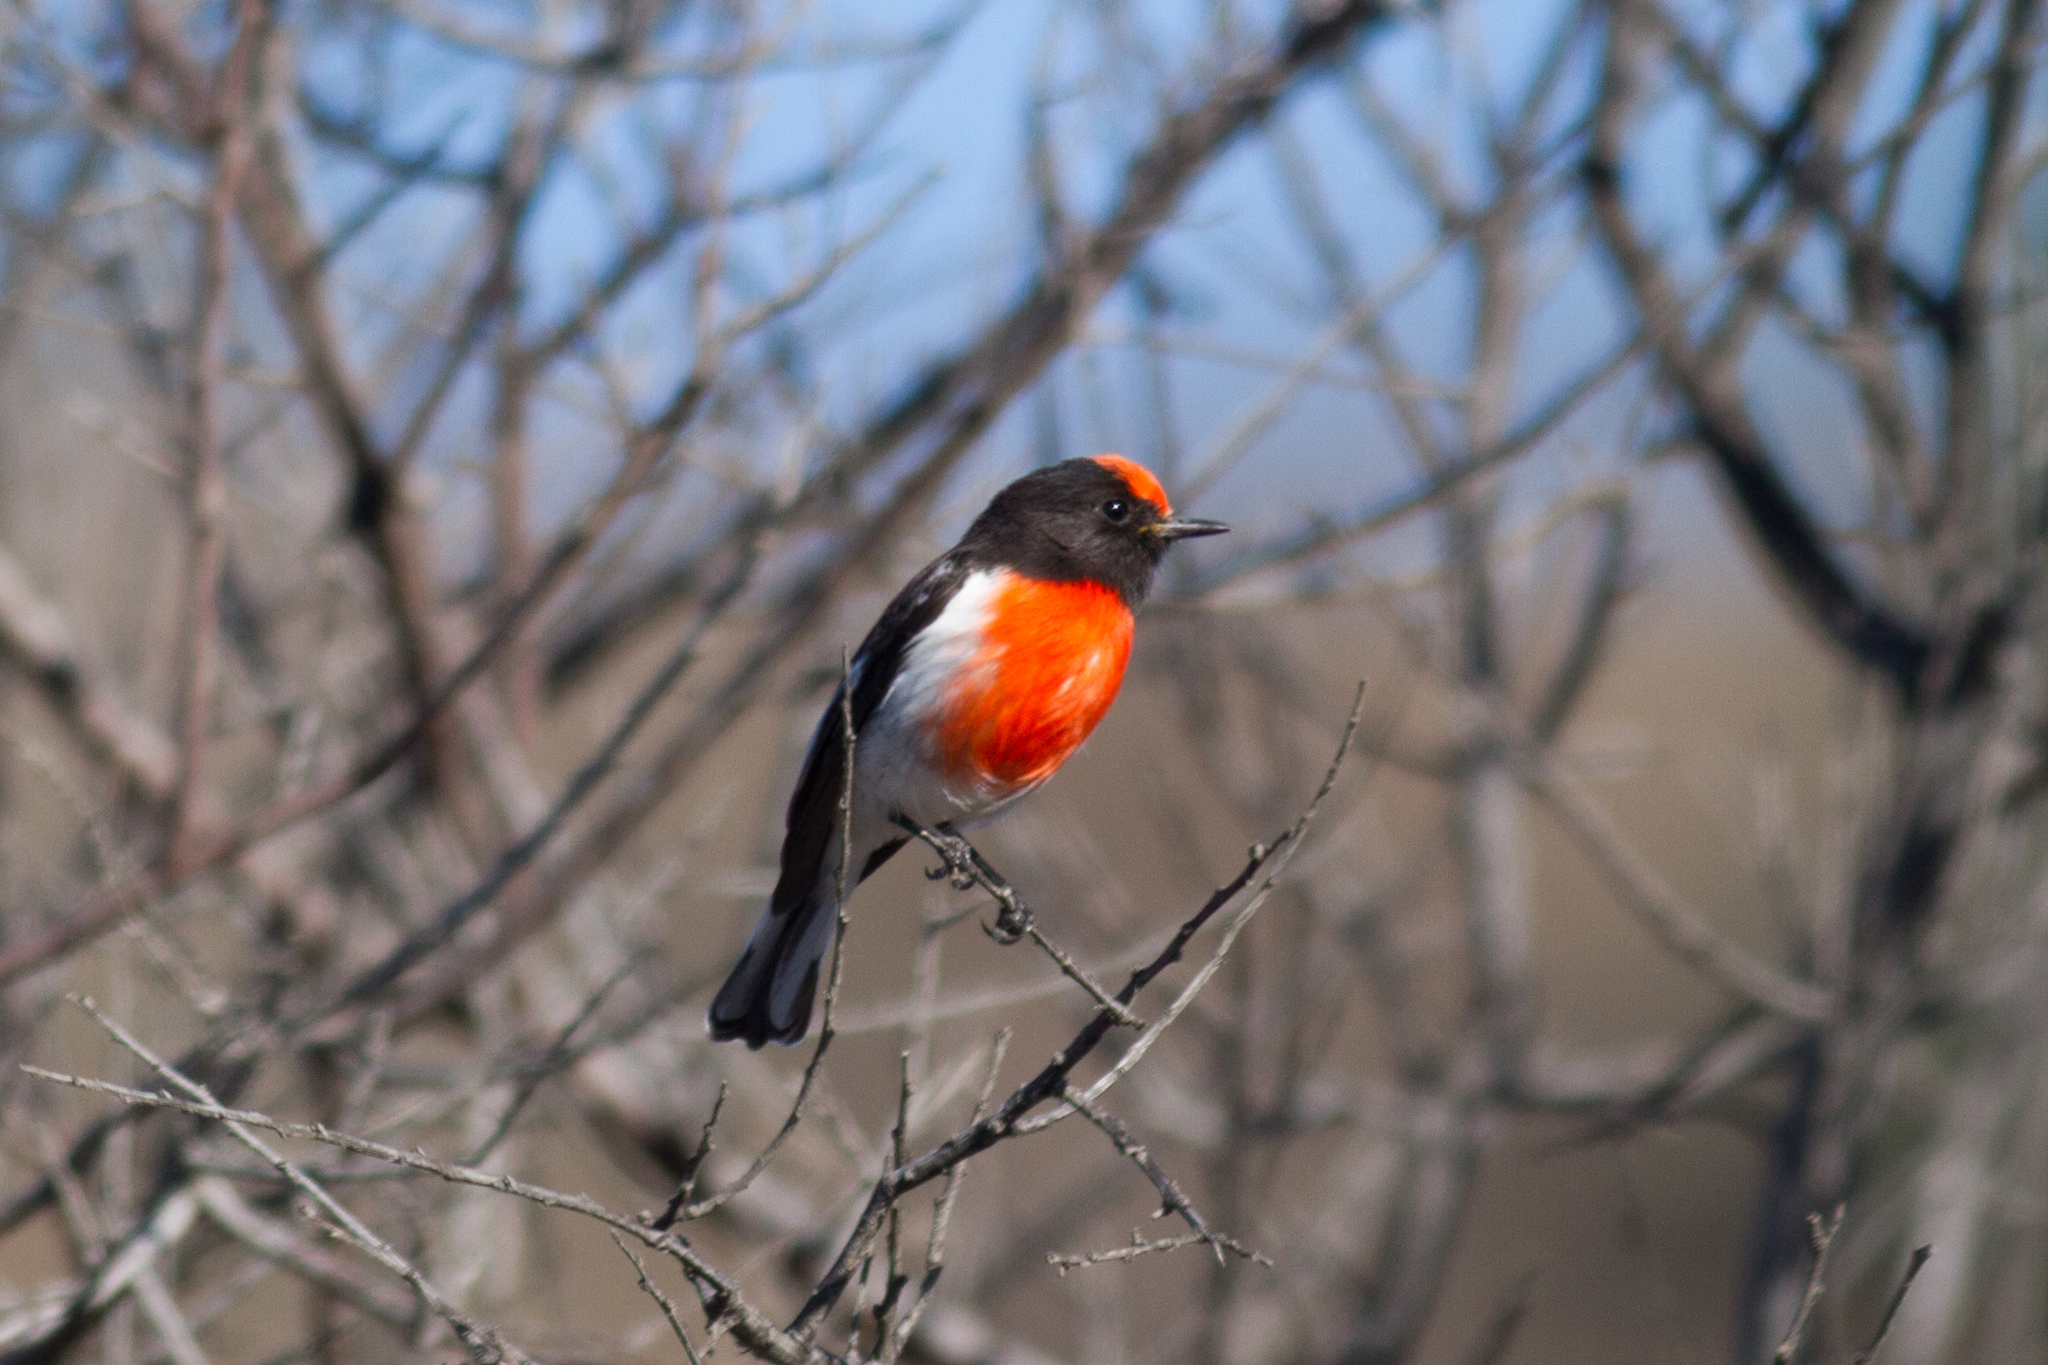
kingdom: Animalia
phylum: Chordata
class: Aves
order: Passeriformes
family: Petroicidae
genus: Petroica
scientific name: Petroica goodenovii
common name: Red-capped robin
